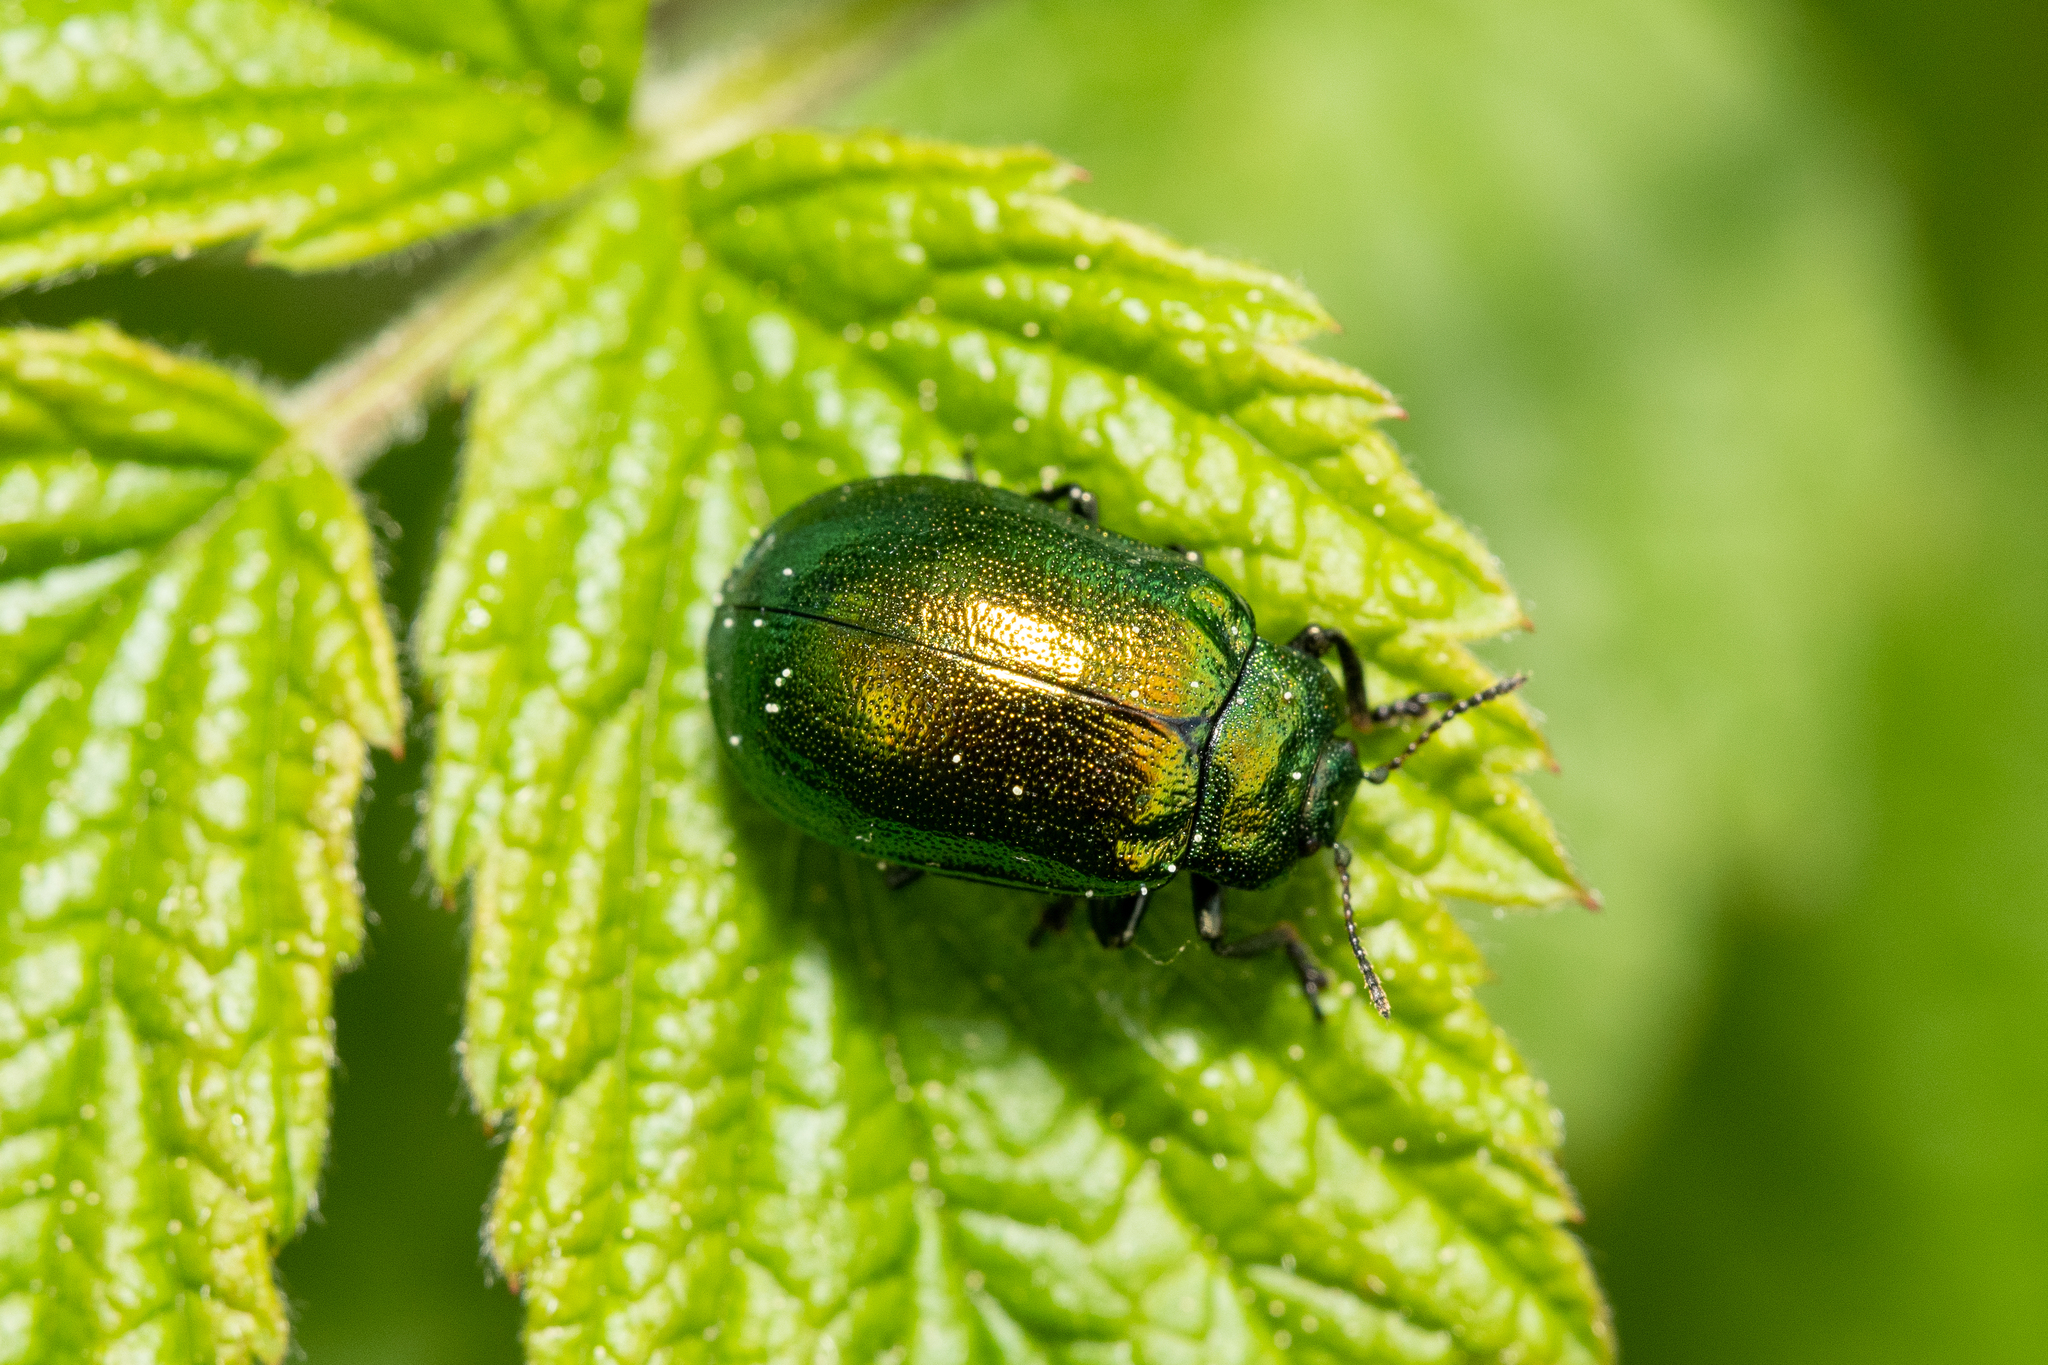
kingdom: Animalia
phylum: Arthropoda
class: Insecta
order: Coleoptera
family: Chrysomelidae
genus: Plagiosterna
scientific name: Plagiosterna aenea
